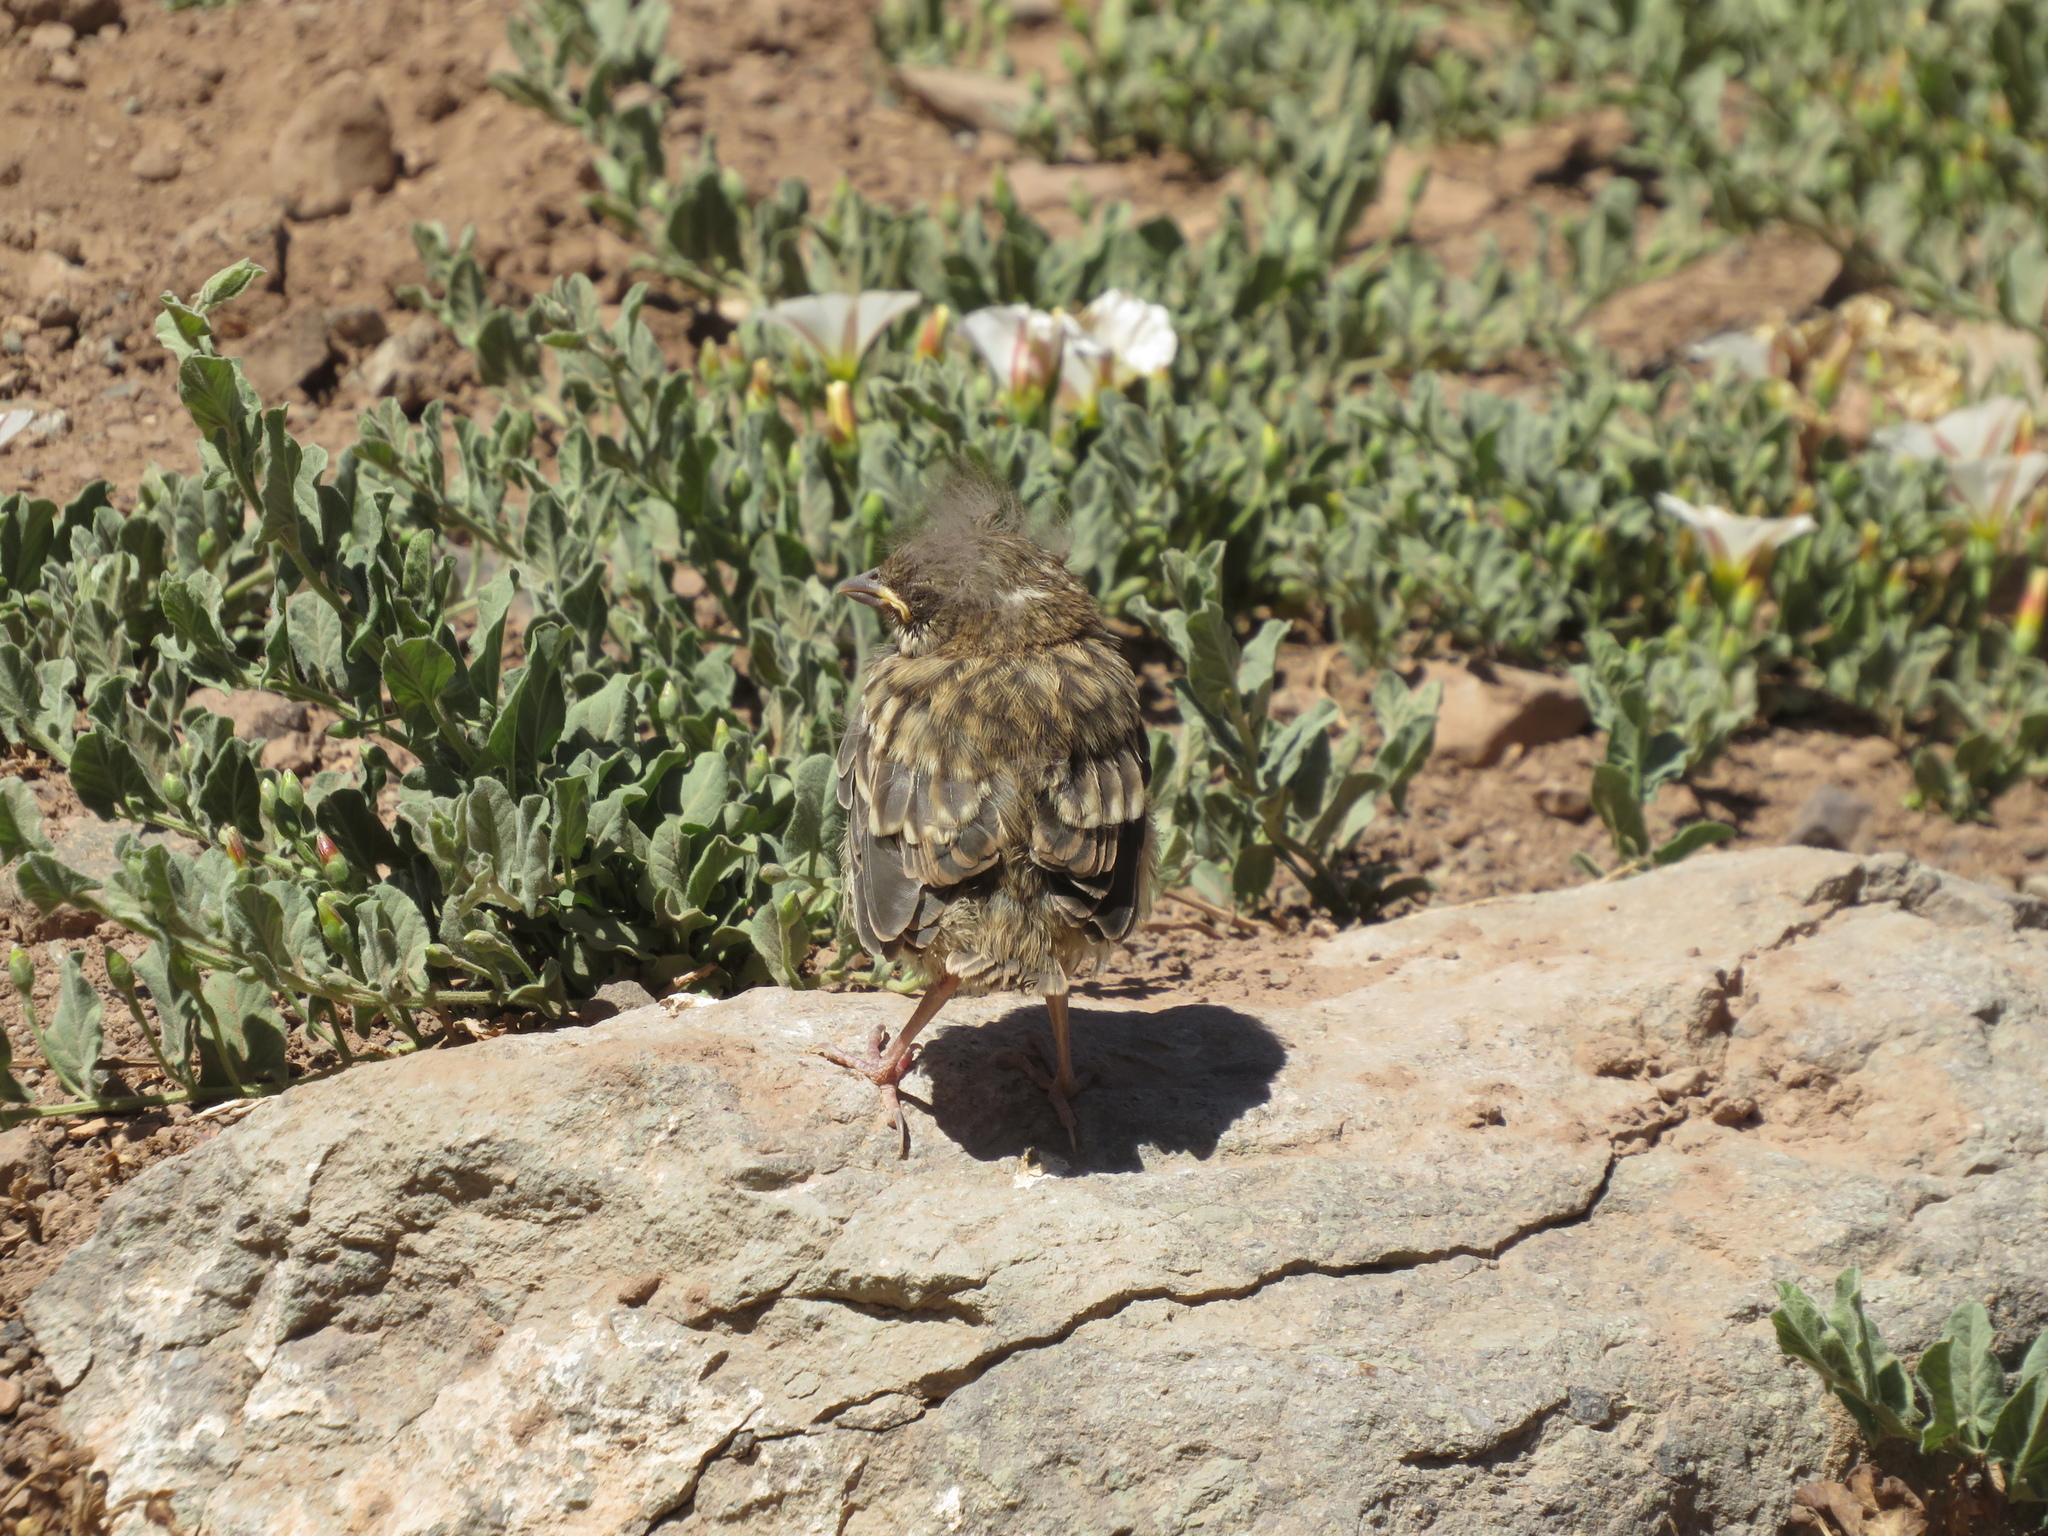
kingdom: Animalia
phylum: Chordata
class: Aves
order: Passeriformes
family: Passerellidae
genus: Zonotrichia
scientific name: Zonotrichia capensis
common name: Rufous-collared sparrow
